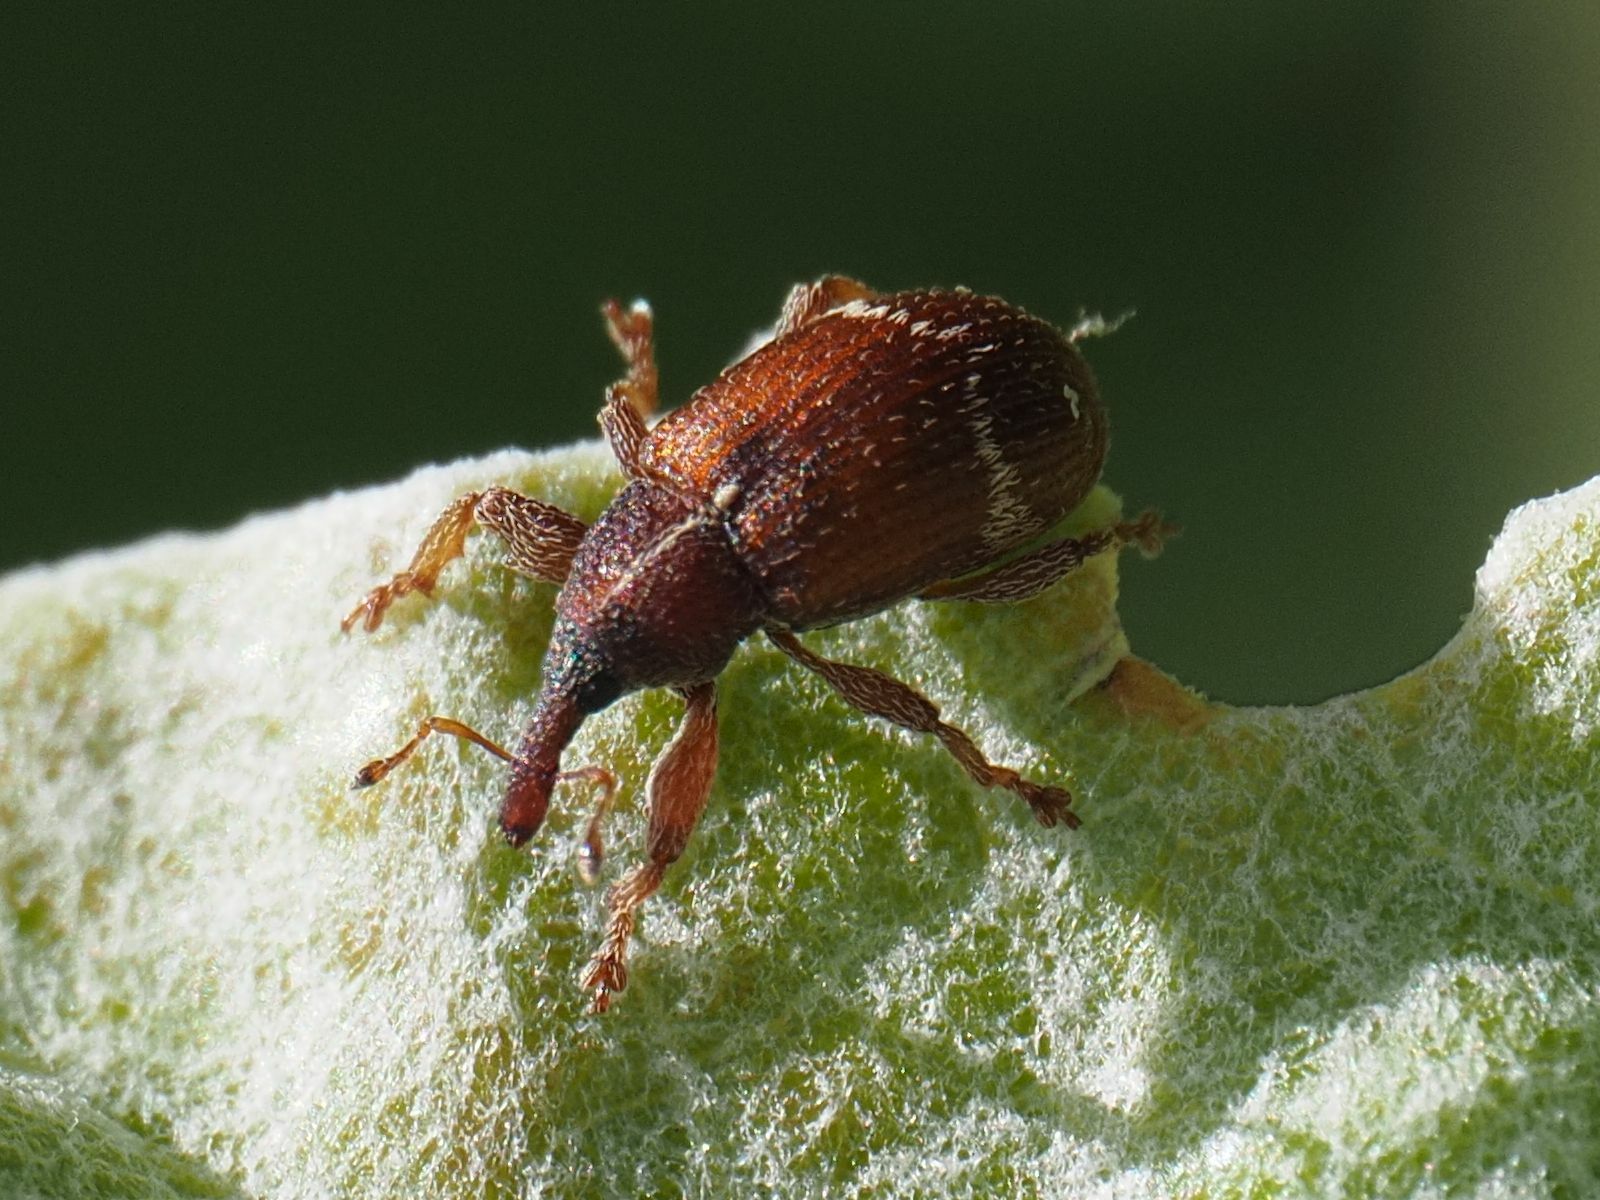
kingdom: Animalia
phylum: Arthropoda
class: Insecta
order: Coleoptera
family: Curculionidae
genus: Bradybatus
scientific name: Bradybatus fallax
